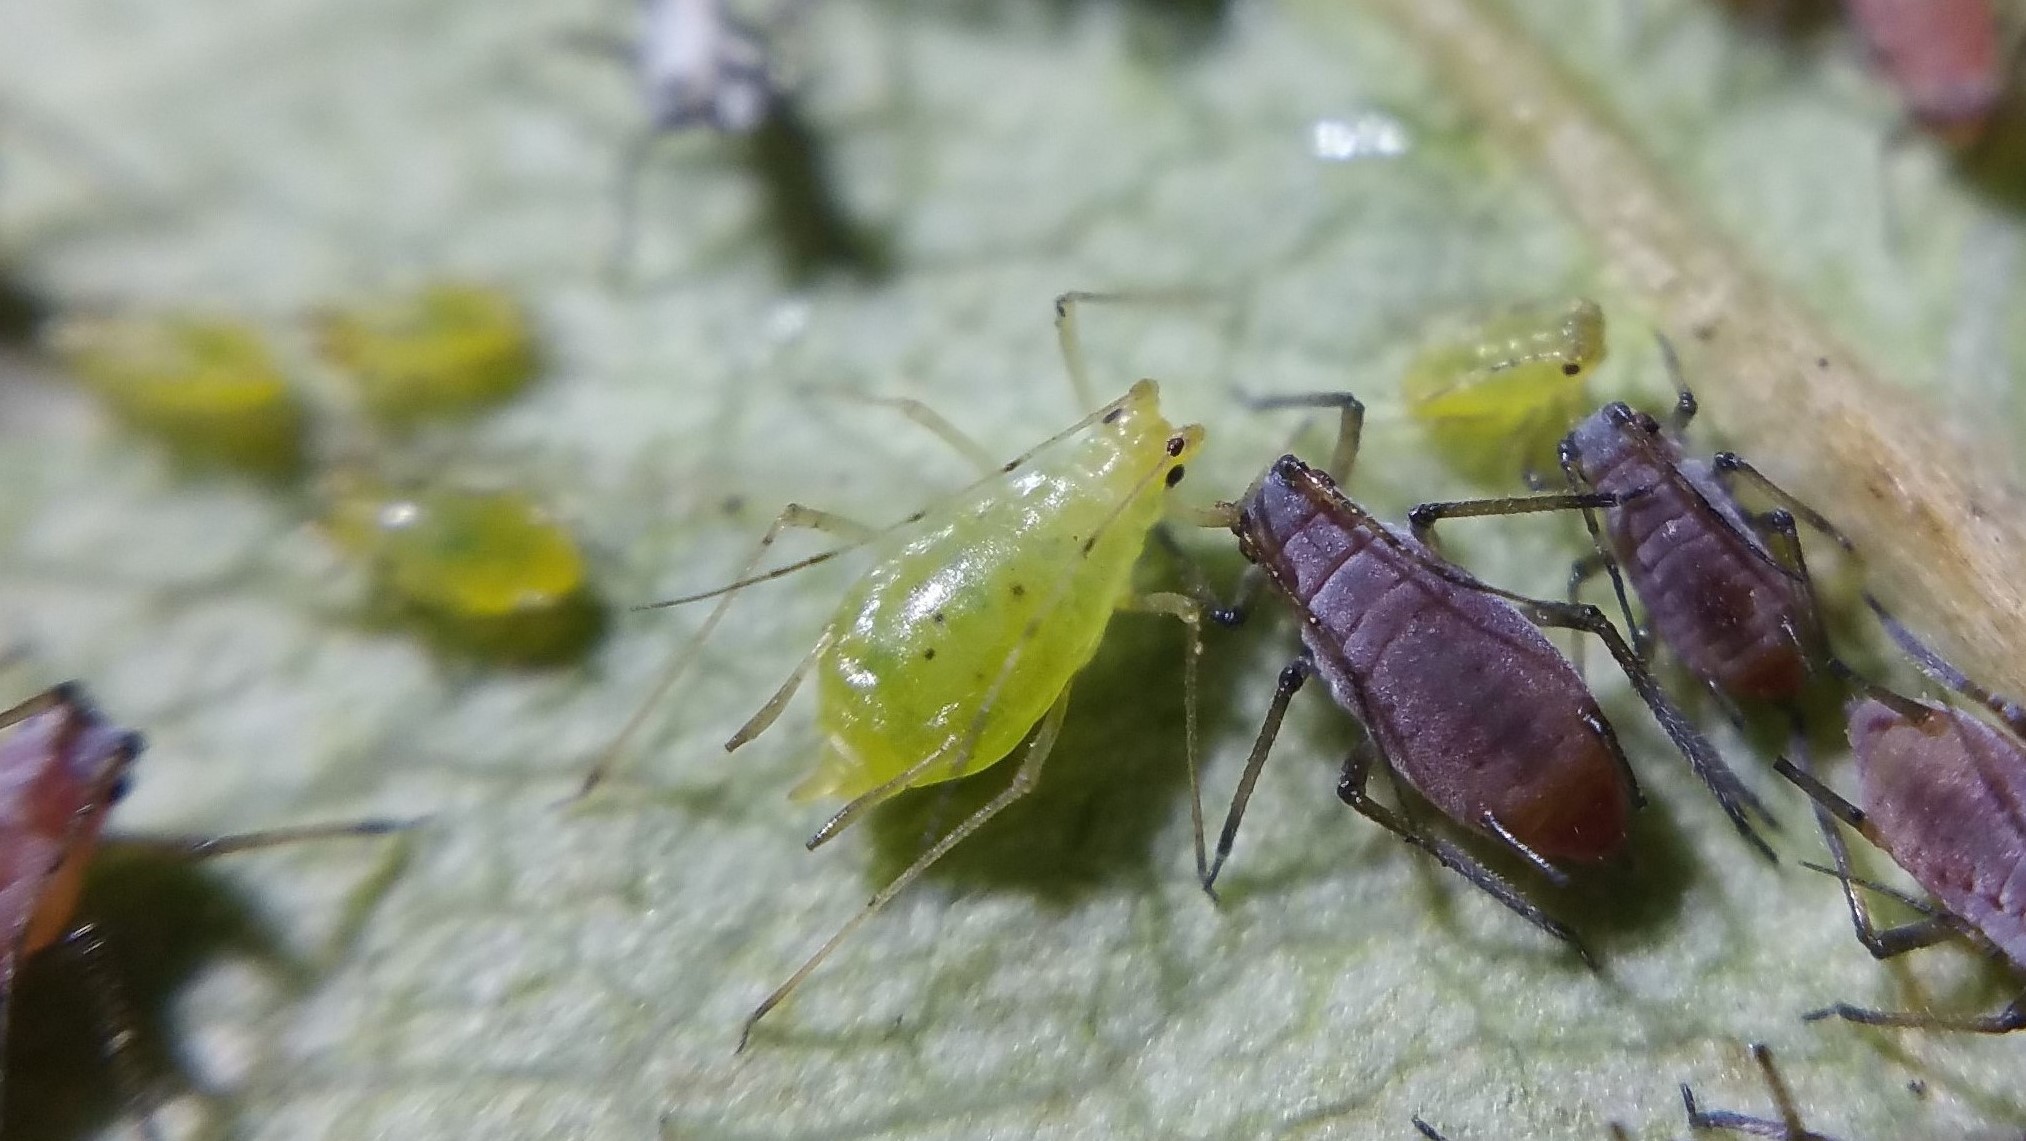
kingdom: Animalia
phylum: Arthropoda
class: Insecta
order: Hemiptera
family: Aphididae
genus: Wahlgreniella
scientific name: Wahlgreniella nervata
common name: Pale green aphid
